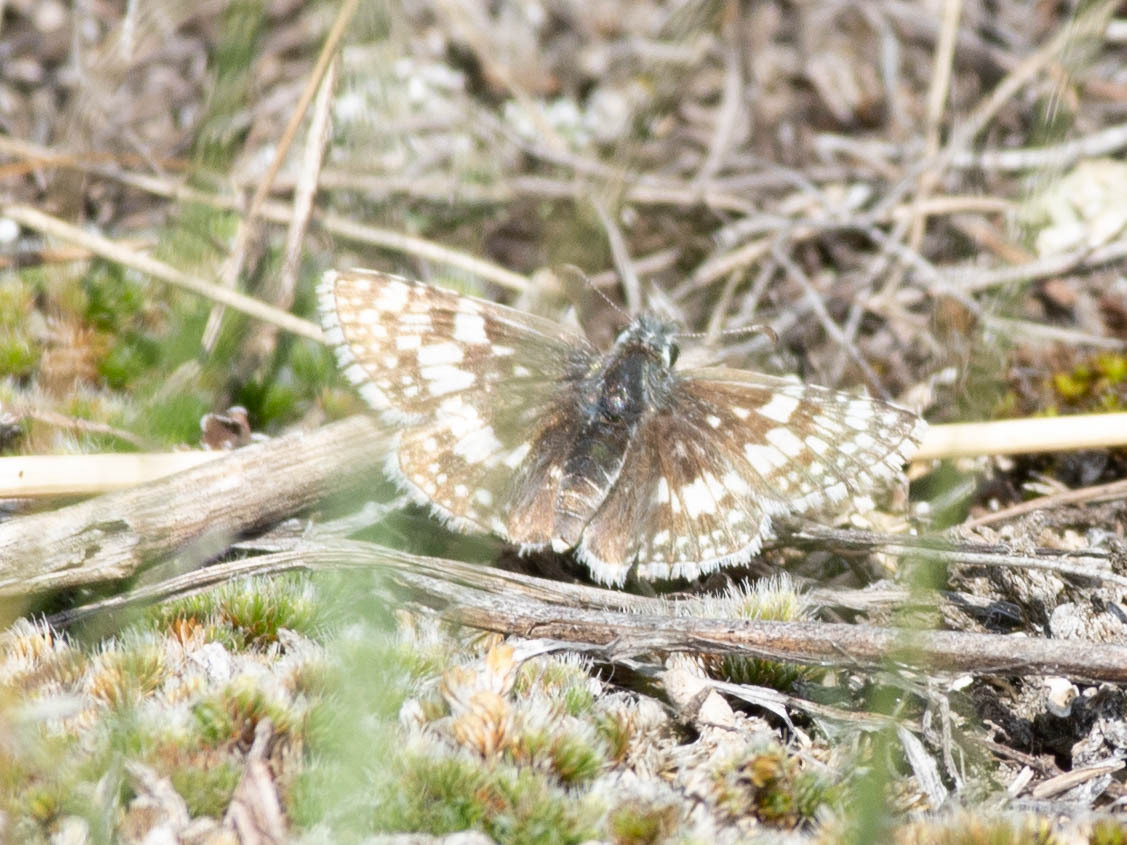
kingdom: Animalia
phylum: Arthropoda
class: Insecta
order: Lepidoptera
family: Hesperiidae
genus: Burnsius
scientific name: Burnsius communis
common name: Common checkered-skipper
